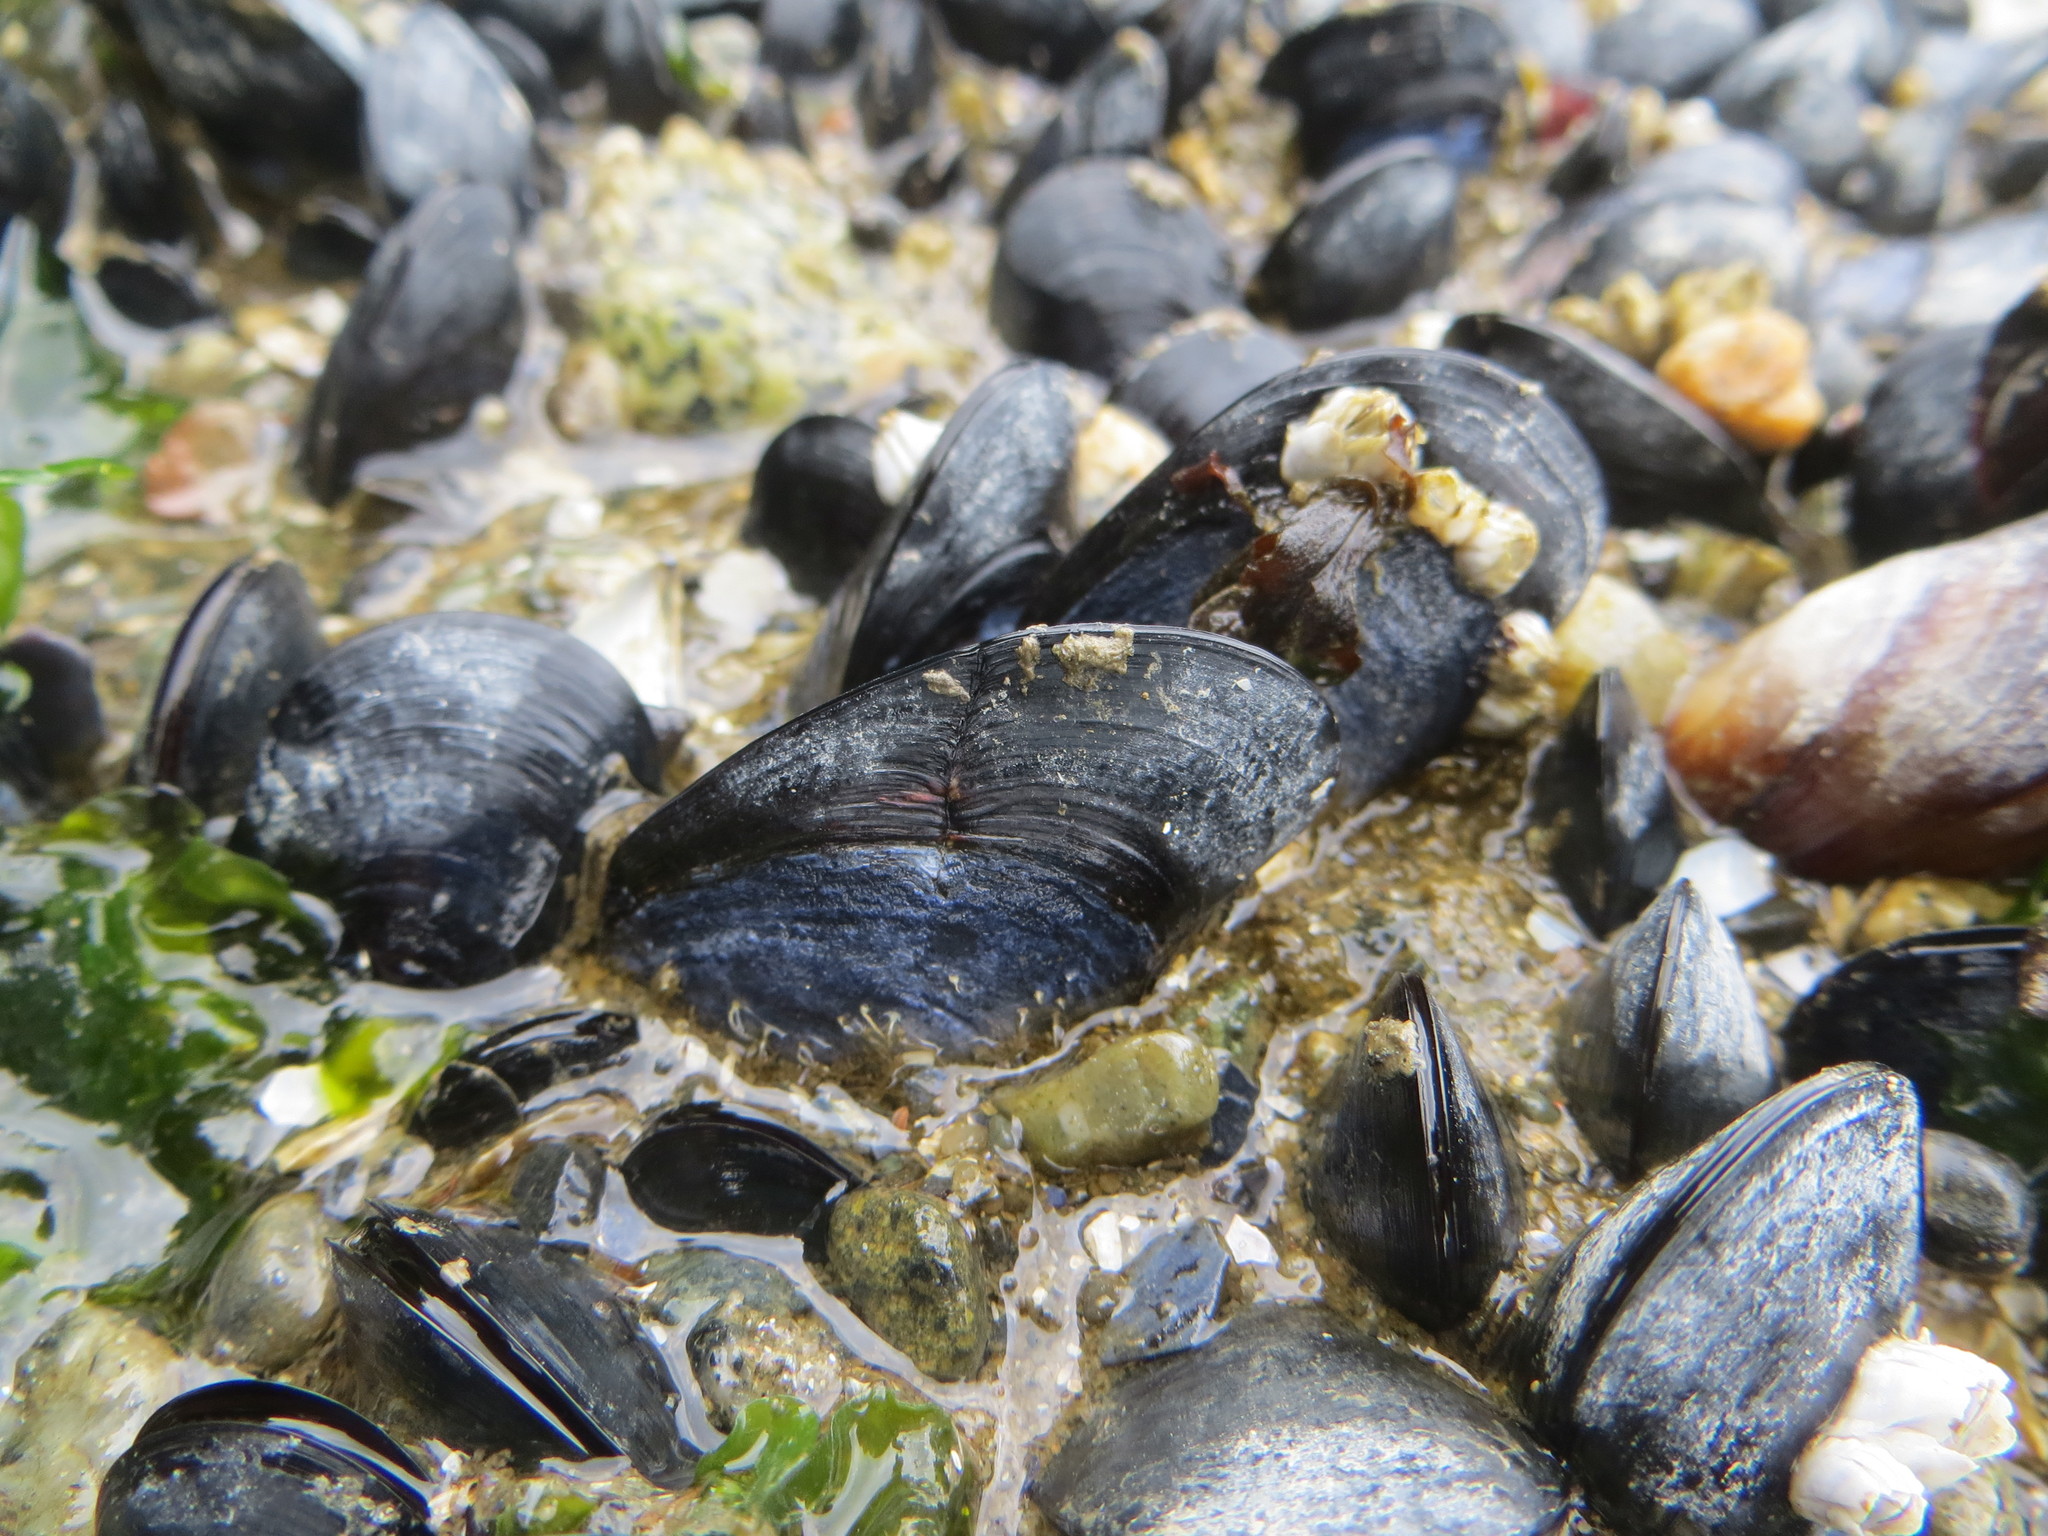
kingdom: Animalia
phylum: Mollusca
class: Bivalvia
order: Mytilida
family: Mytilidae
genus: Mytilus
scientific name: Mytilus
